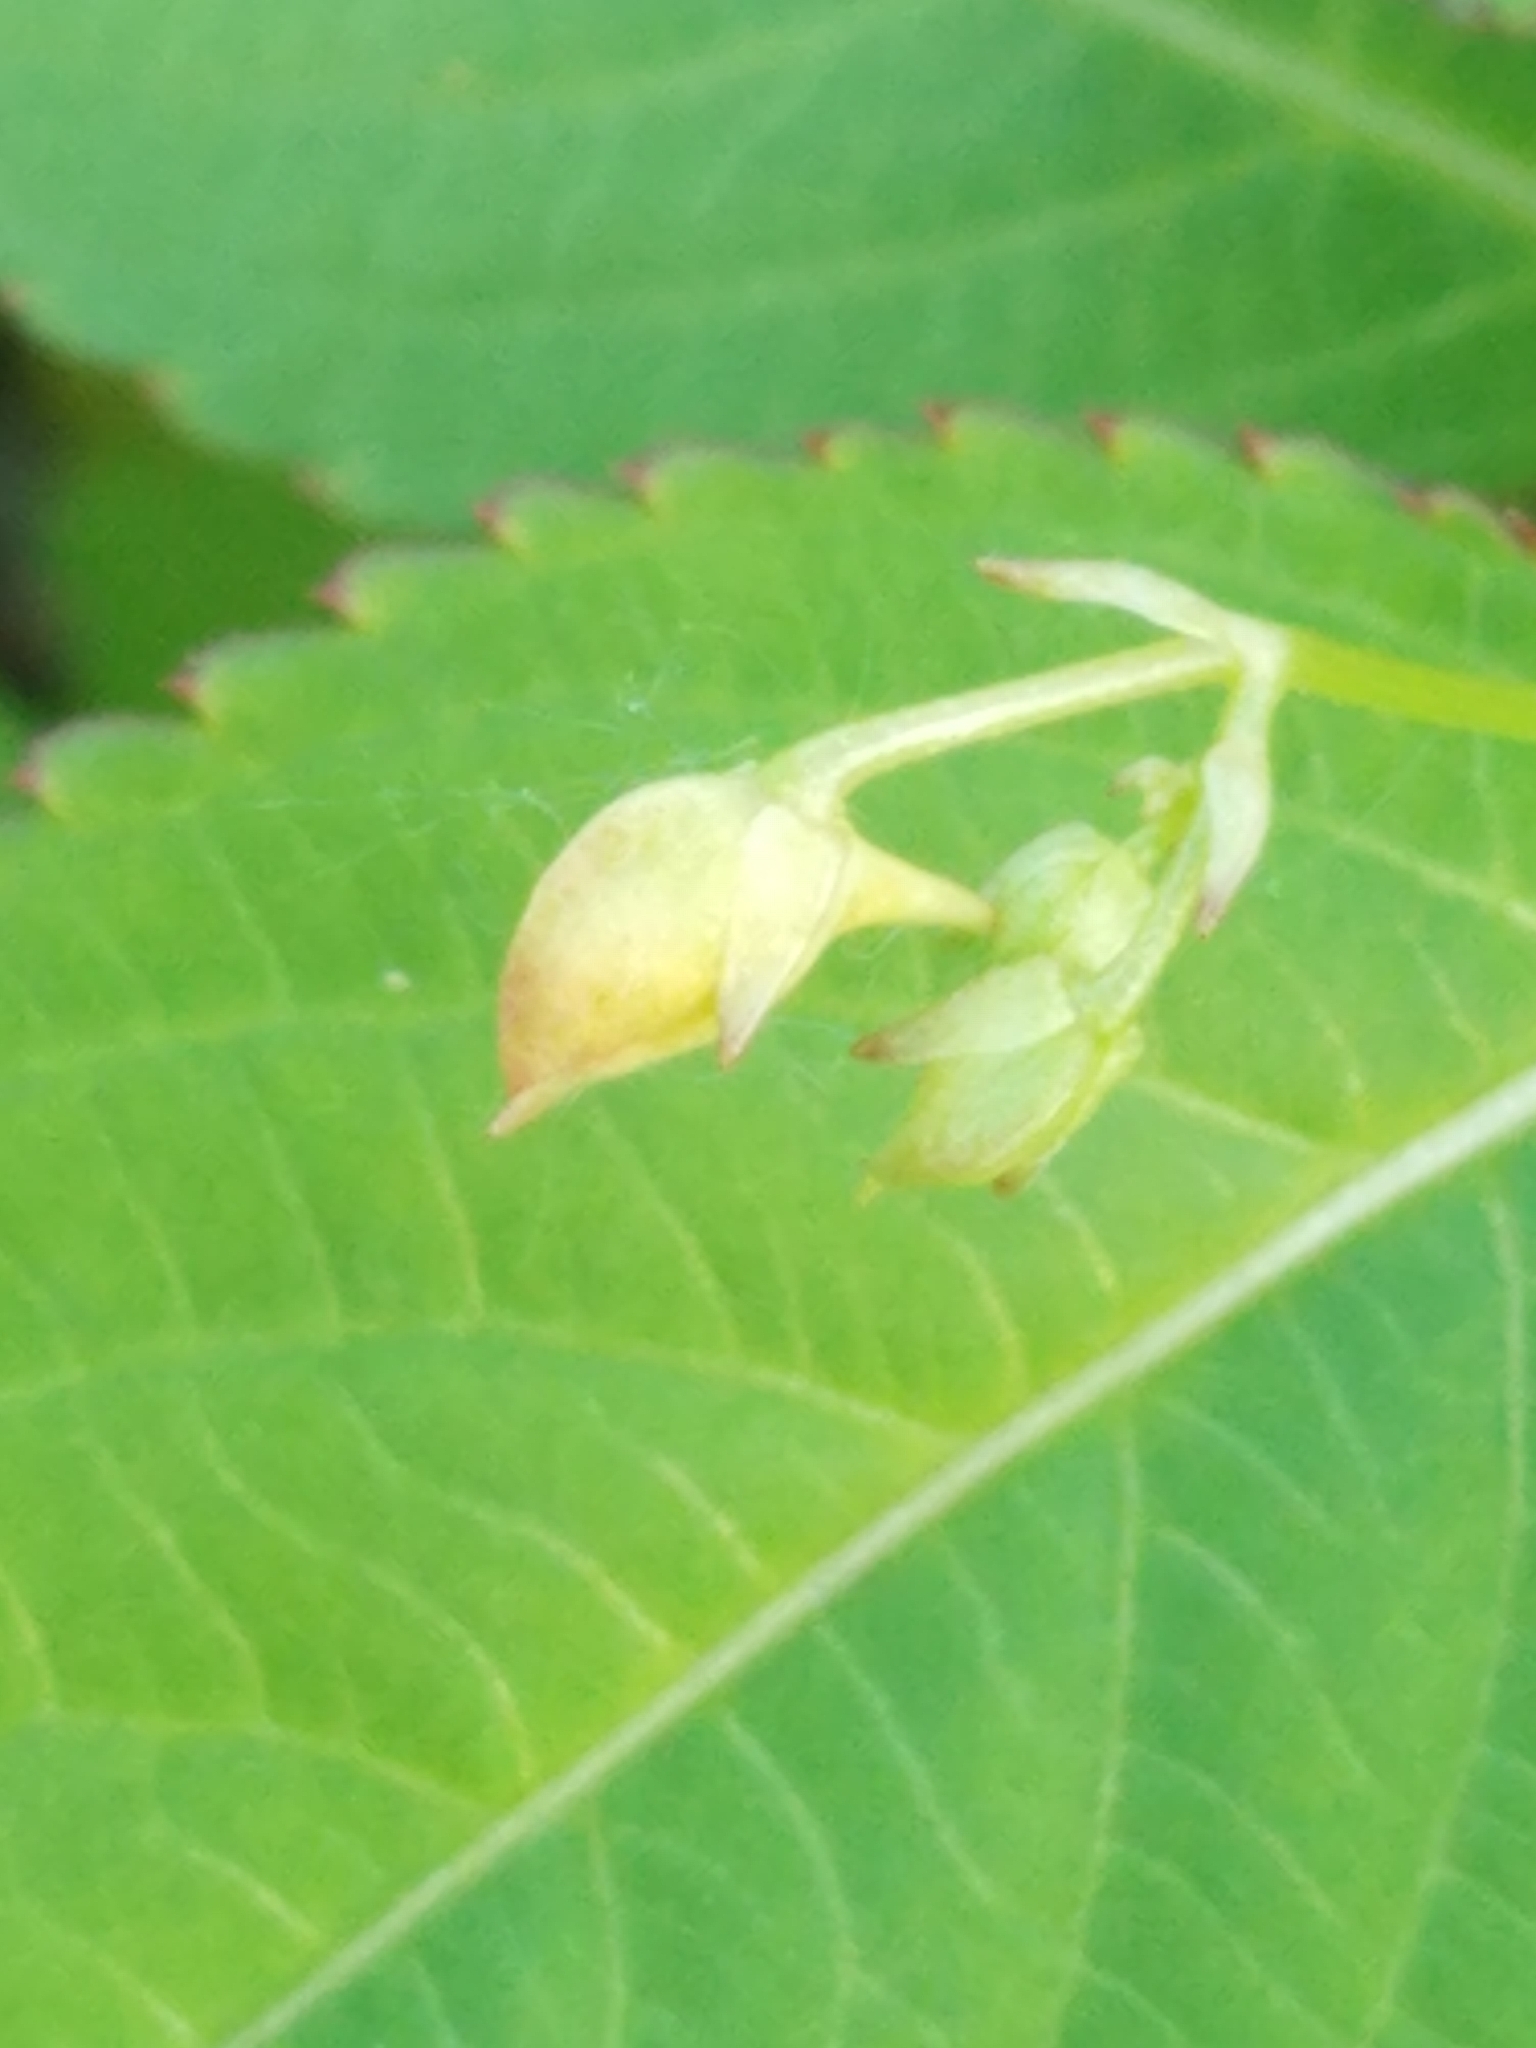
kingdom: Plantae
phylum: Tracheophyta
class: Magnoliopsida
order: Ericales
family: Balsaminaceae
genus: Impatiens
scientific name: Impatiens parviflora
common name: Small balsam
